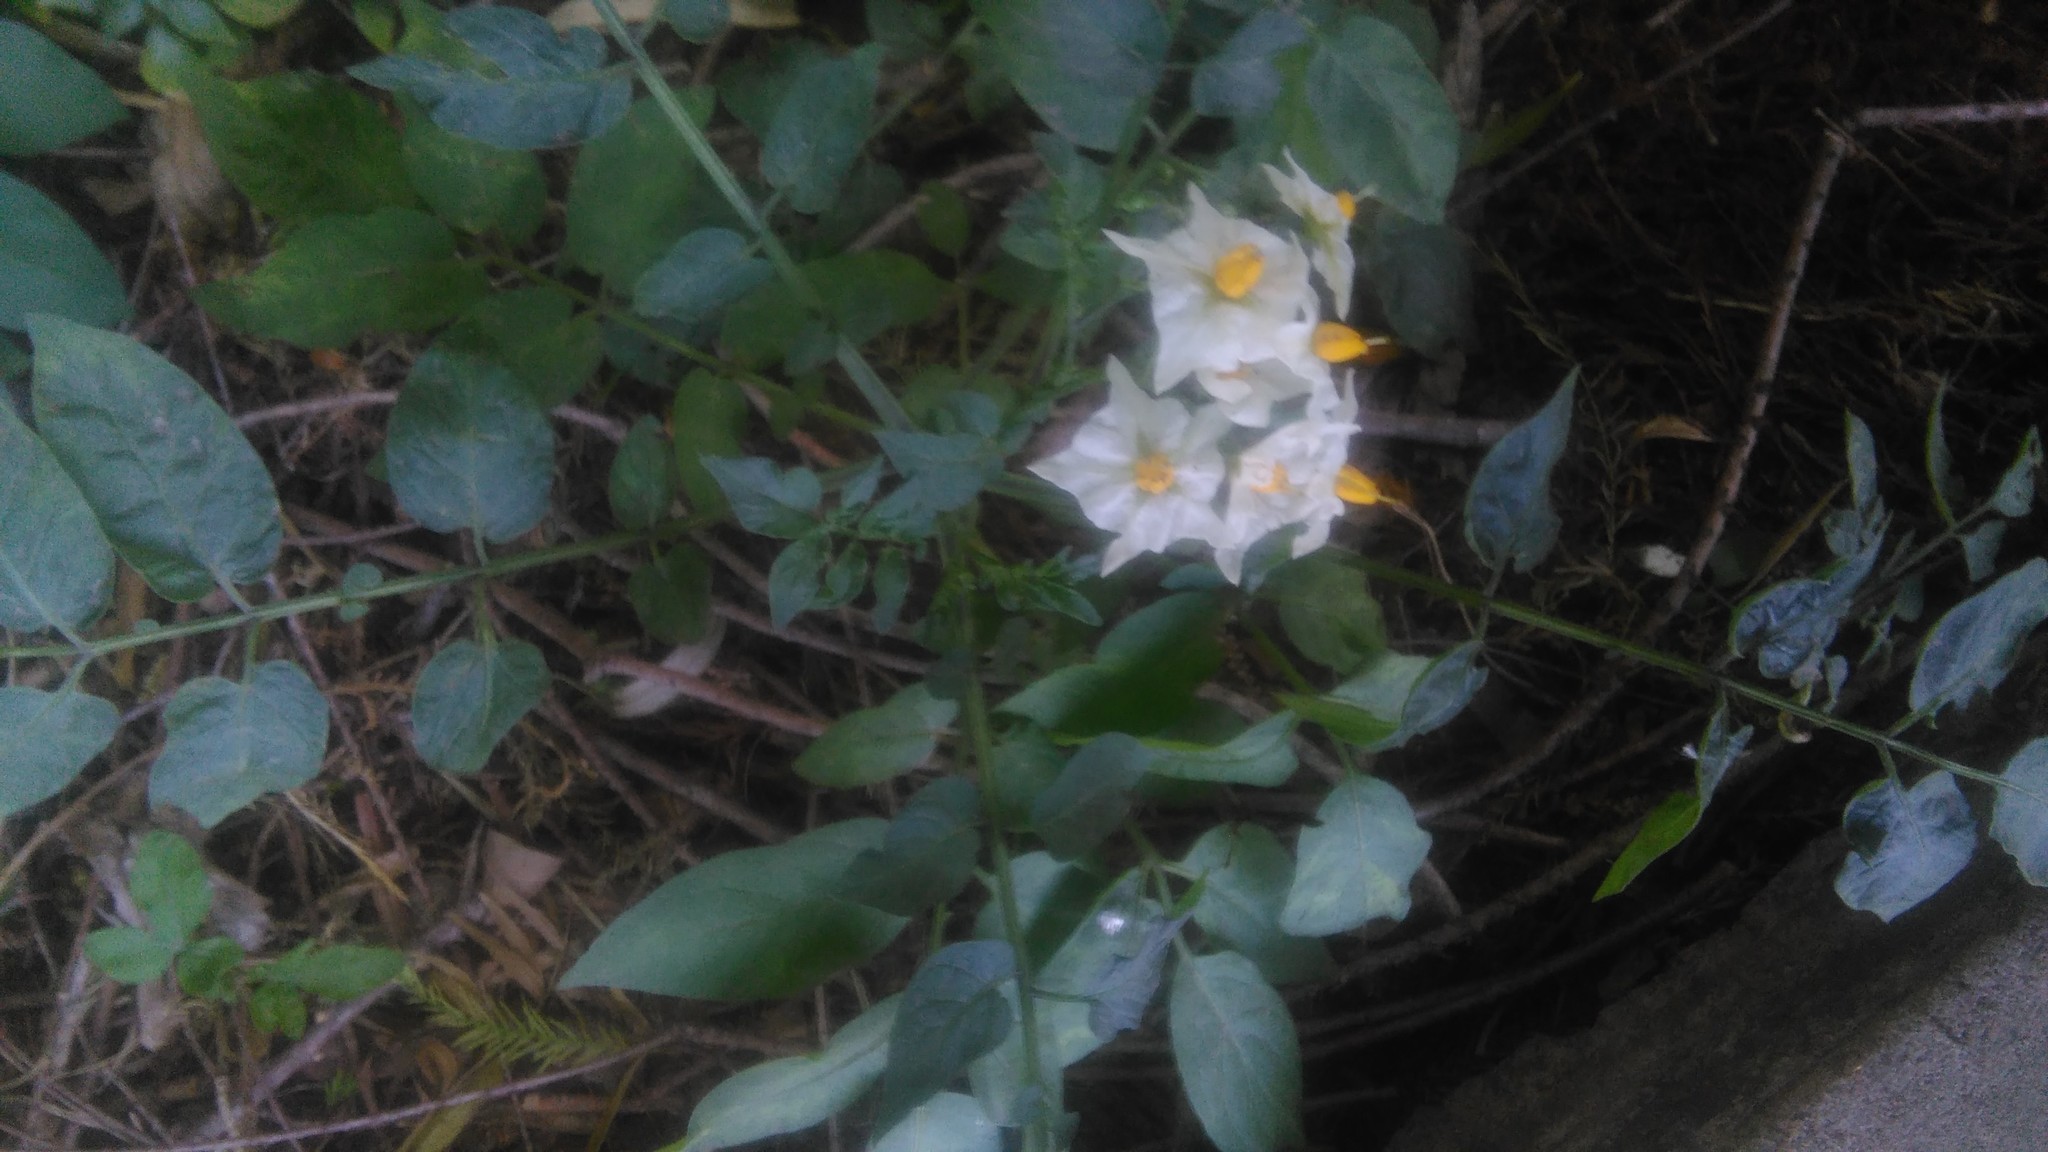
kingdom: Plantae
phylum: Tracheophyta
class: Magnoliopsida
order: Solanales
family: Solanaceae
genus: Solanum
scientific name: Solanum malmeanum
